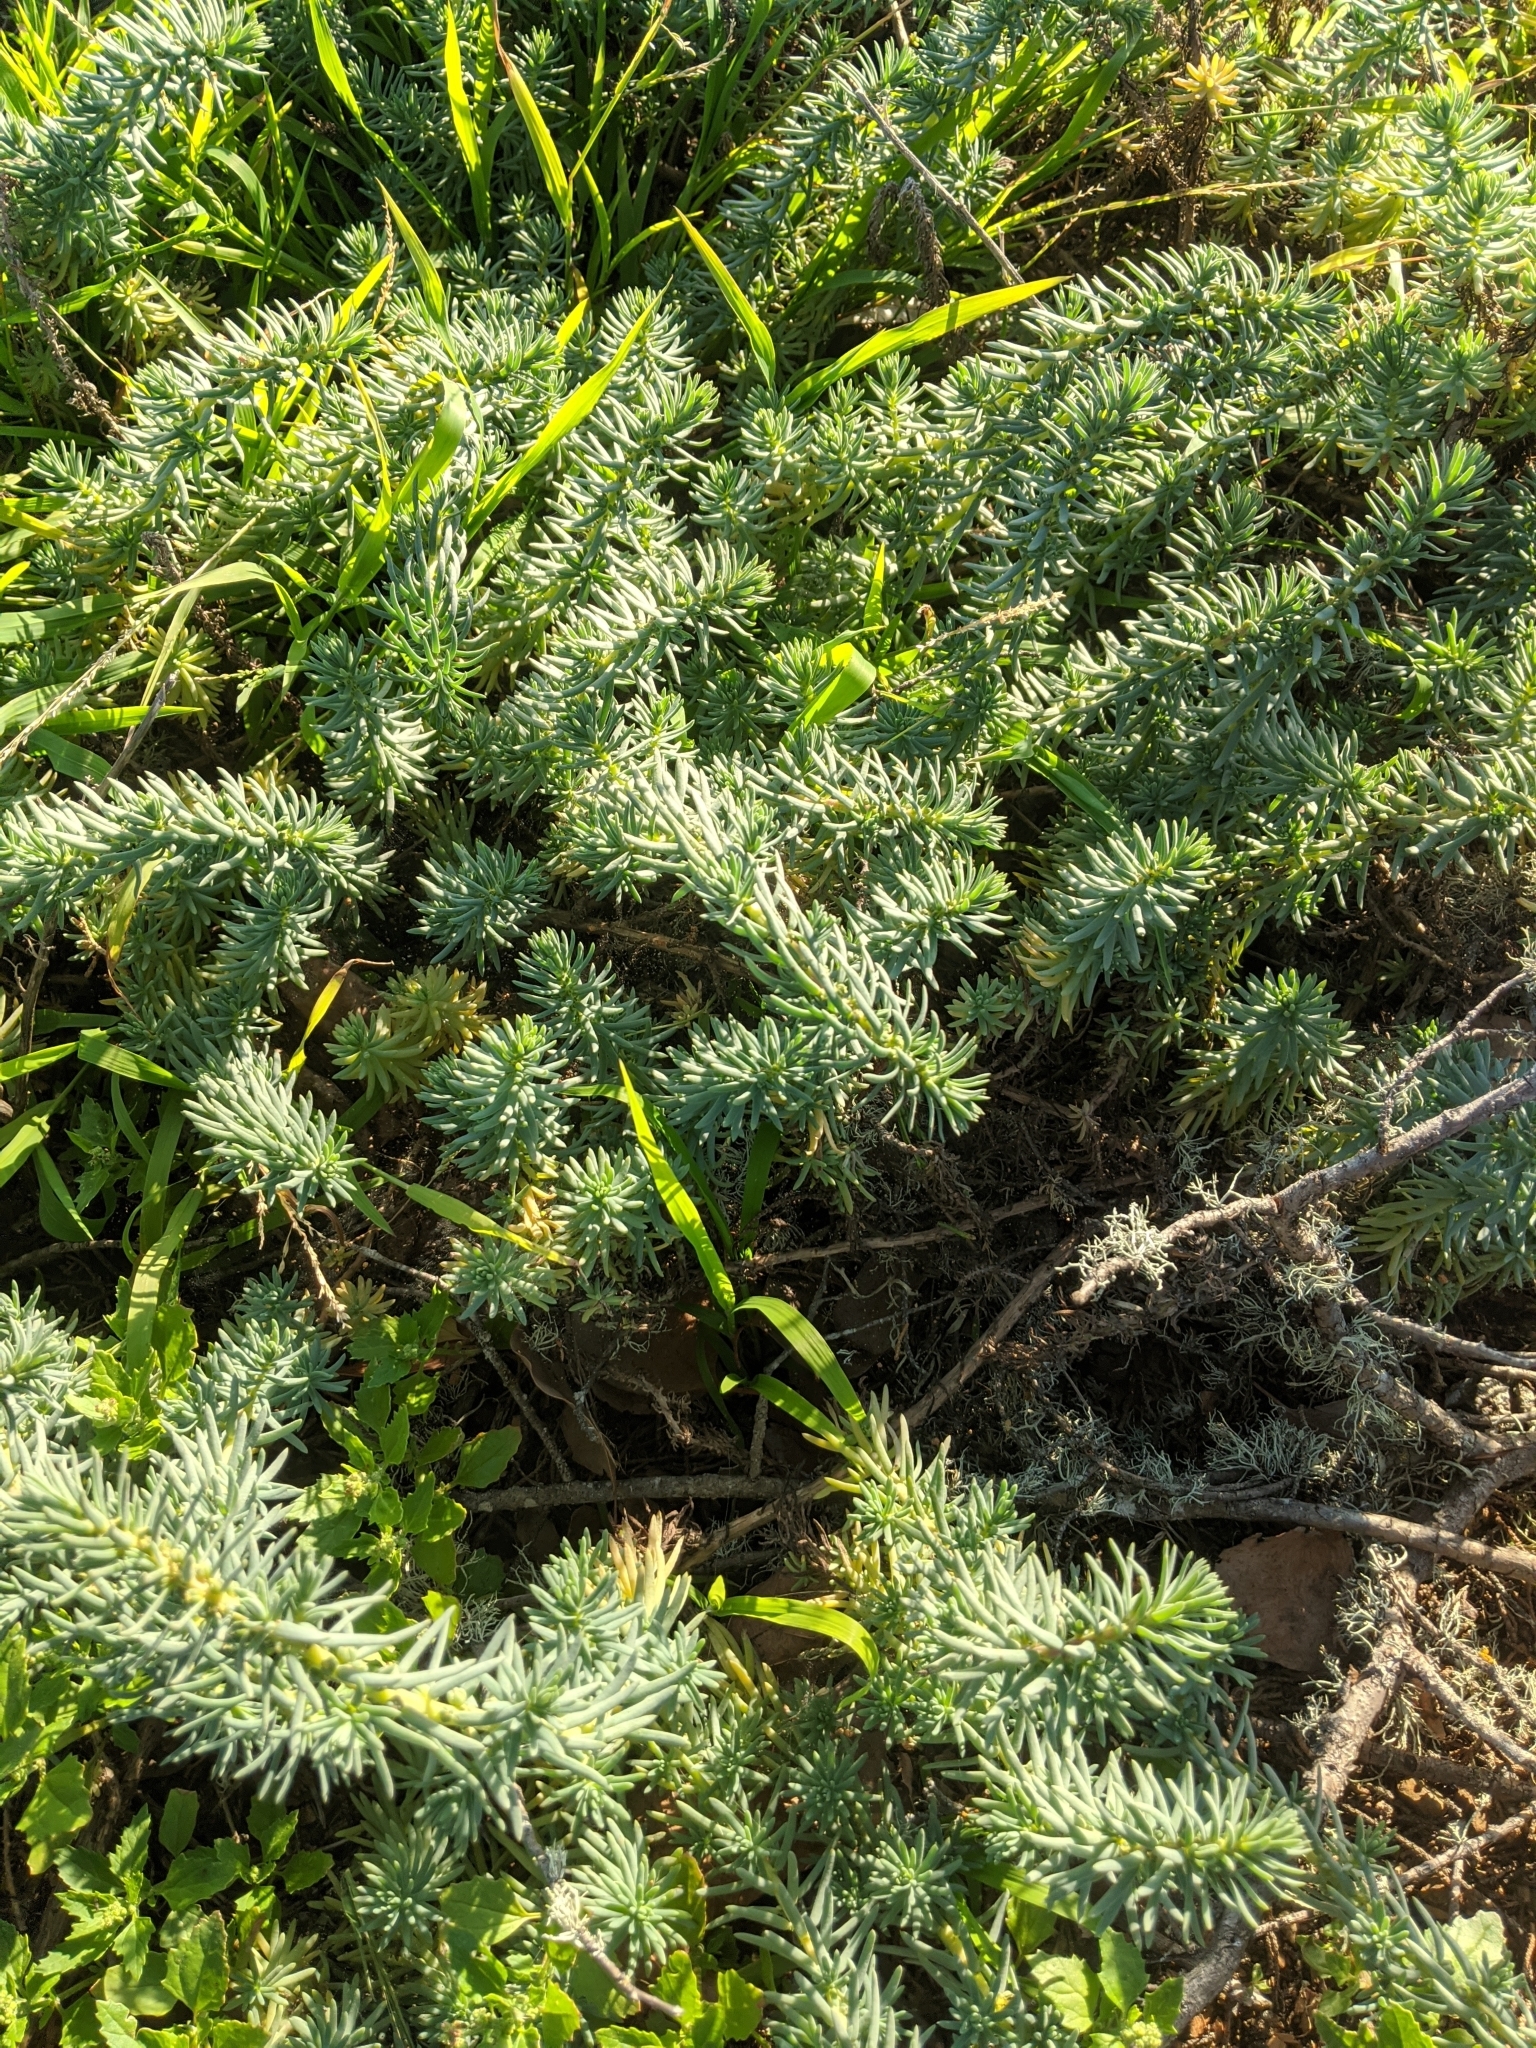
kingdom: Plantae
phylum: Tracheophyta
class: Magnoliopsida
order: Caryophyllales
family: Amaranthaceae
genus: Suaeda
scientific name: Suaeda californica
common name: California sea-blite
